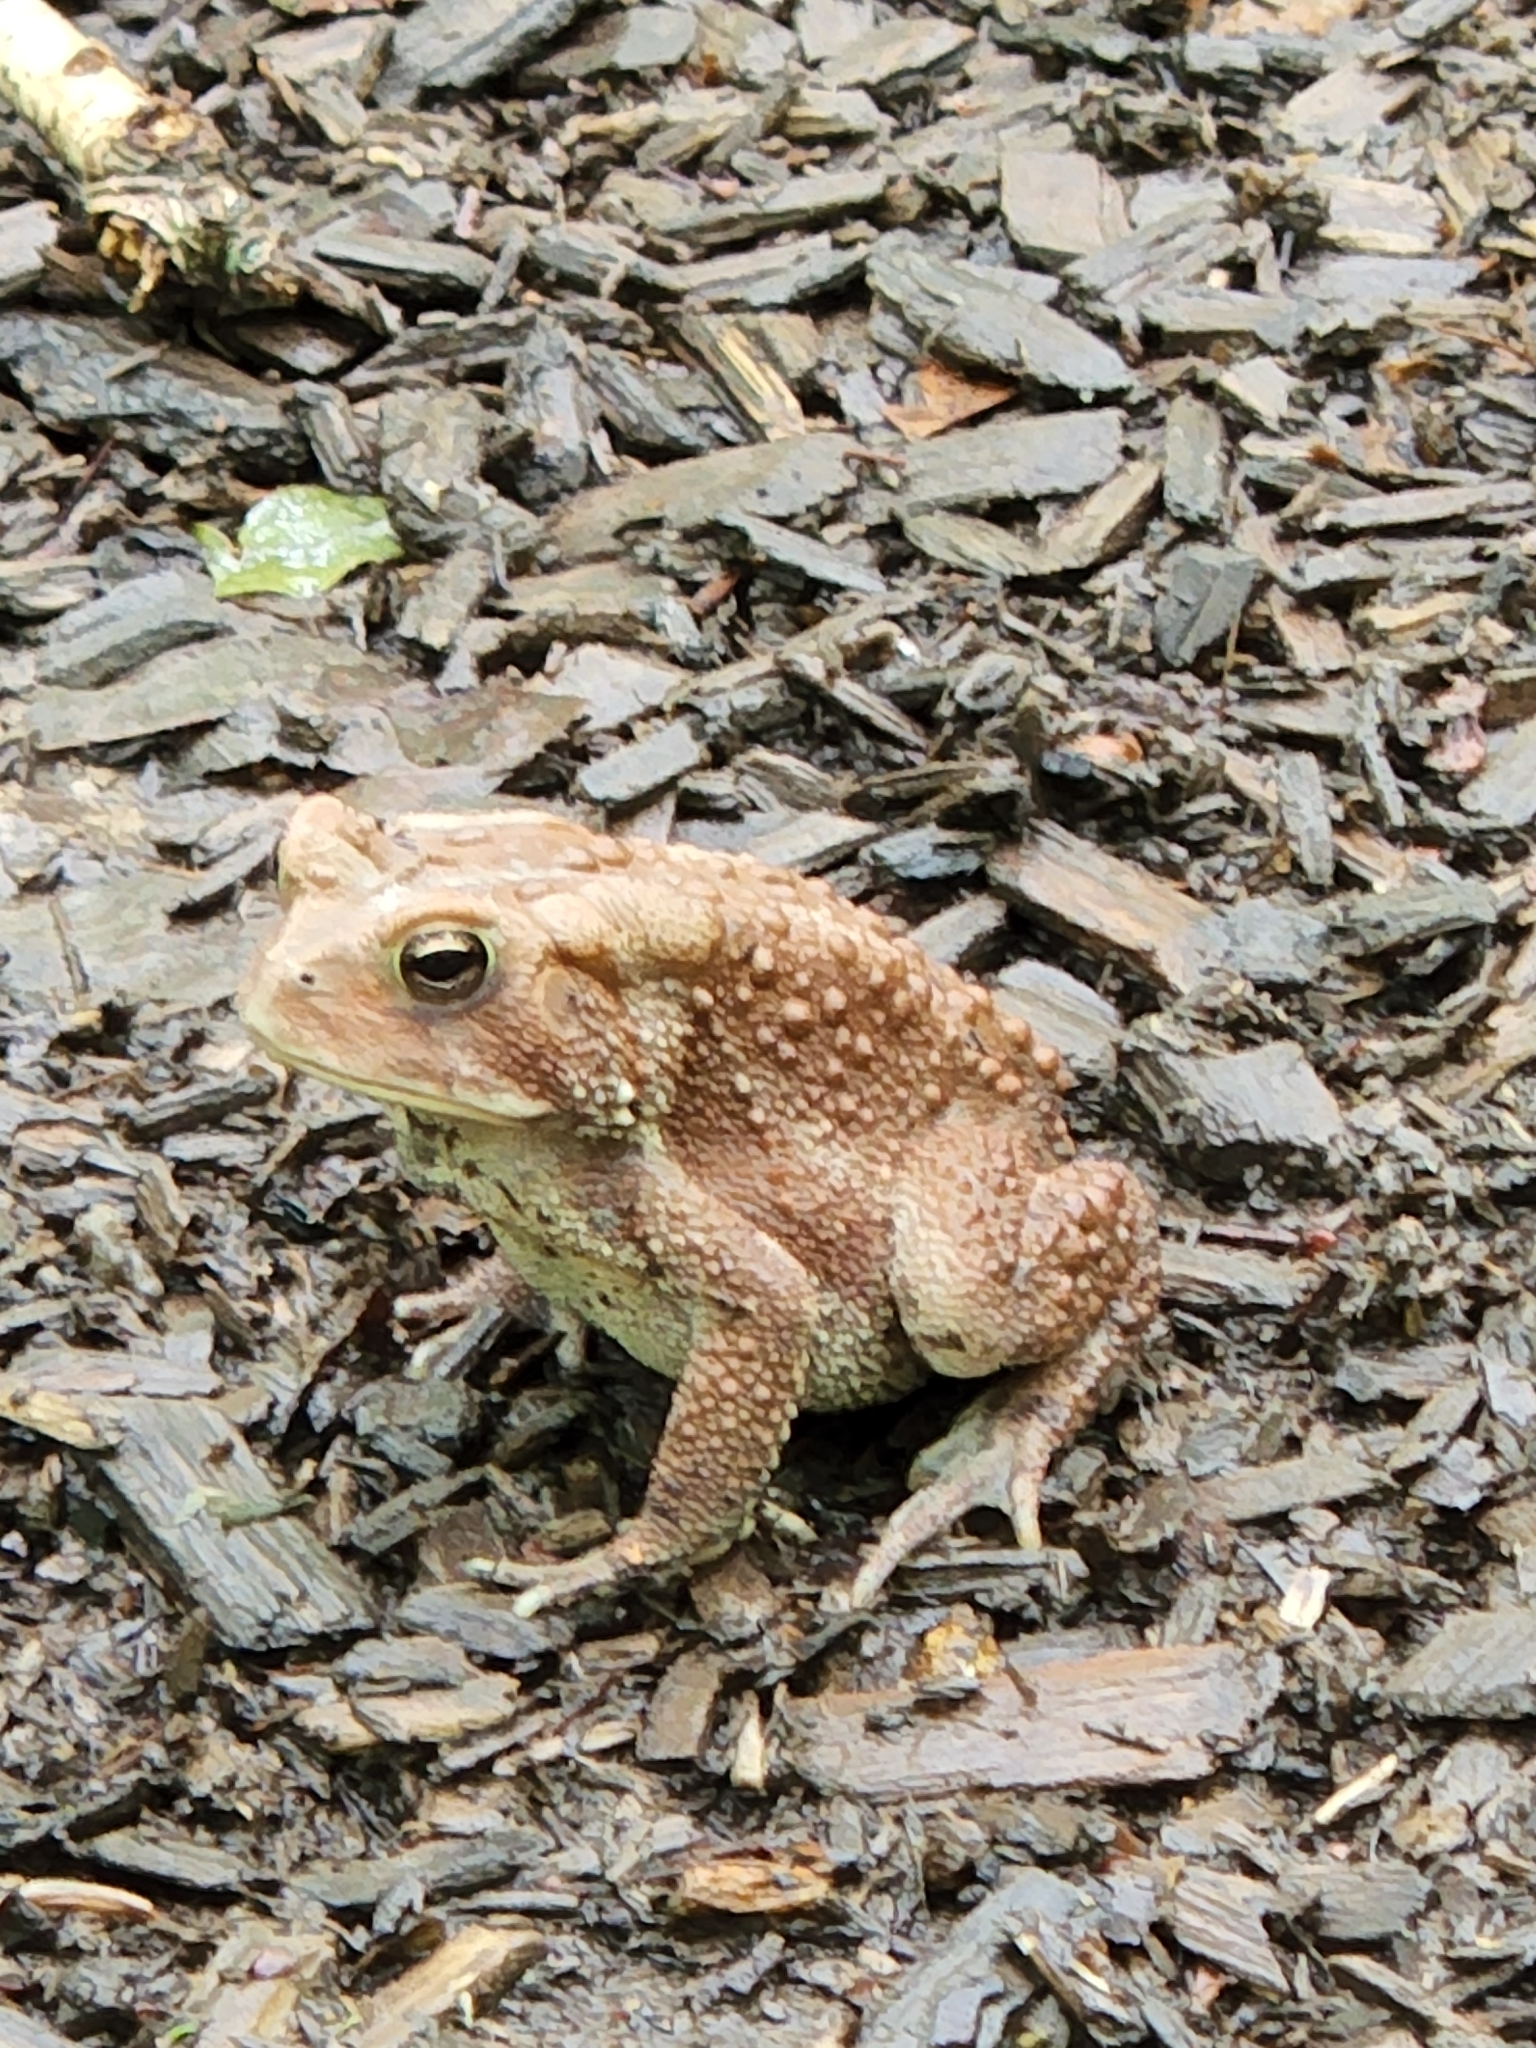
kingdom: Animalia
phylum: Chordata
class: Amphibia
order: Anura
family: Bufonidae
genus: Anaxyrus
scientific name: Anaxyrus americanus
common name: American toad
